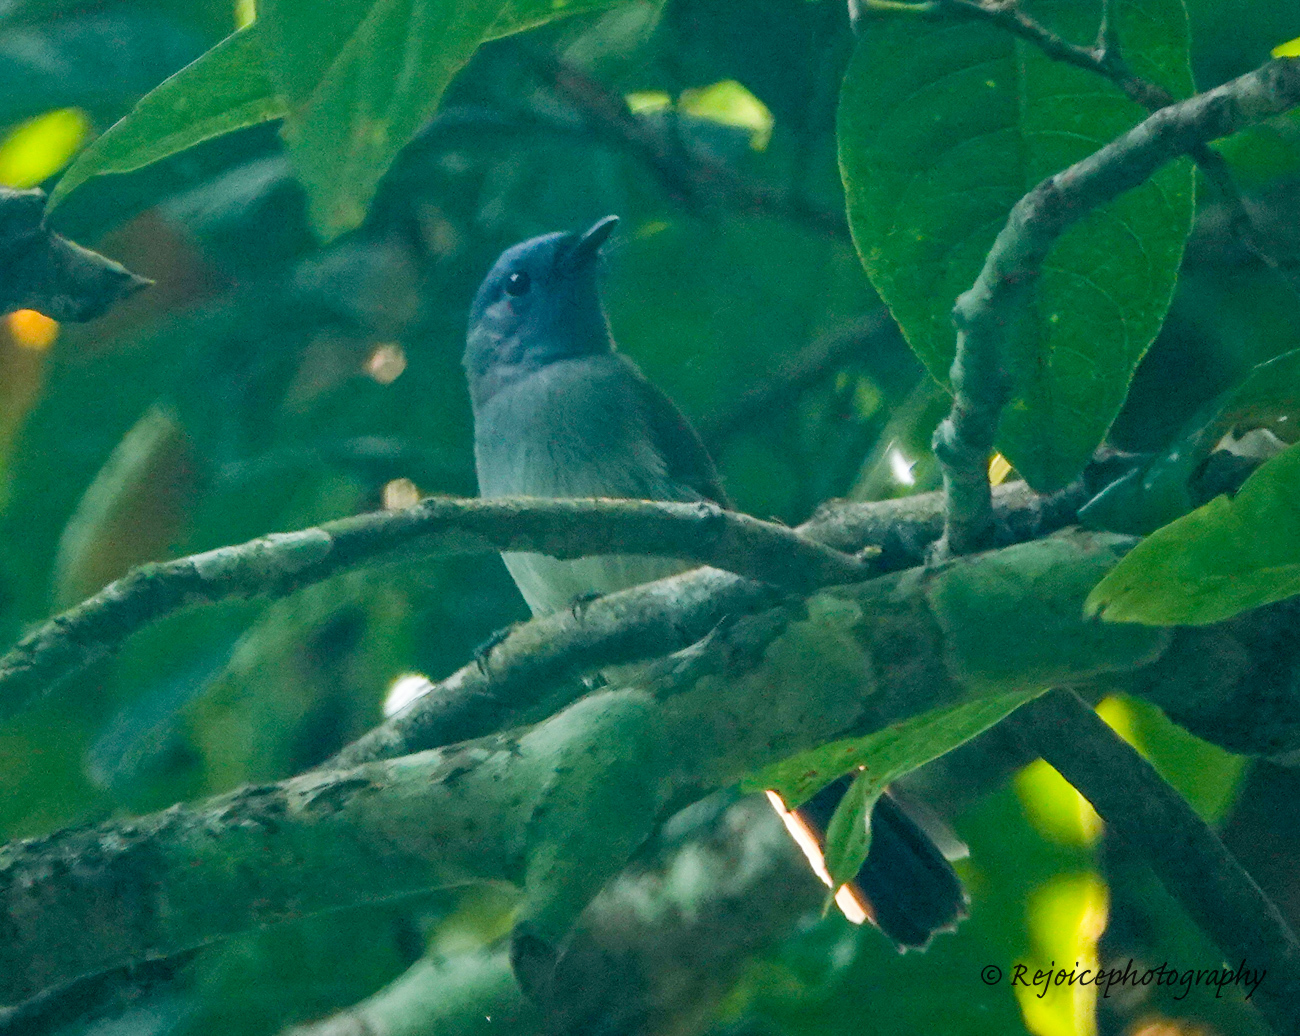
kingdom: Animalia
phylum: Chordata
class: Aves
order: Passeriformes
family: Monarchidae
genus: Hypothymis
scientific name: Hypothymis azurea
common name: Black-naped monarch
